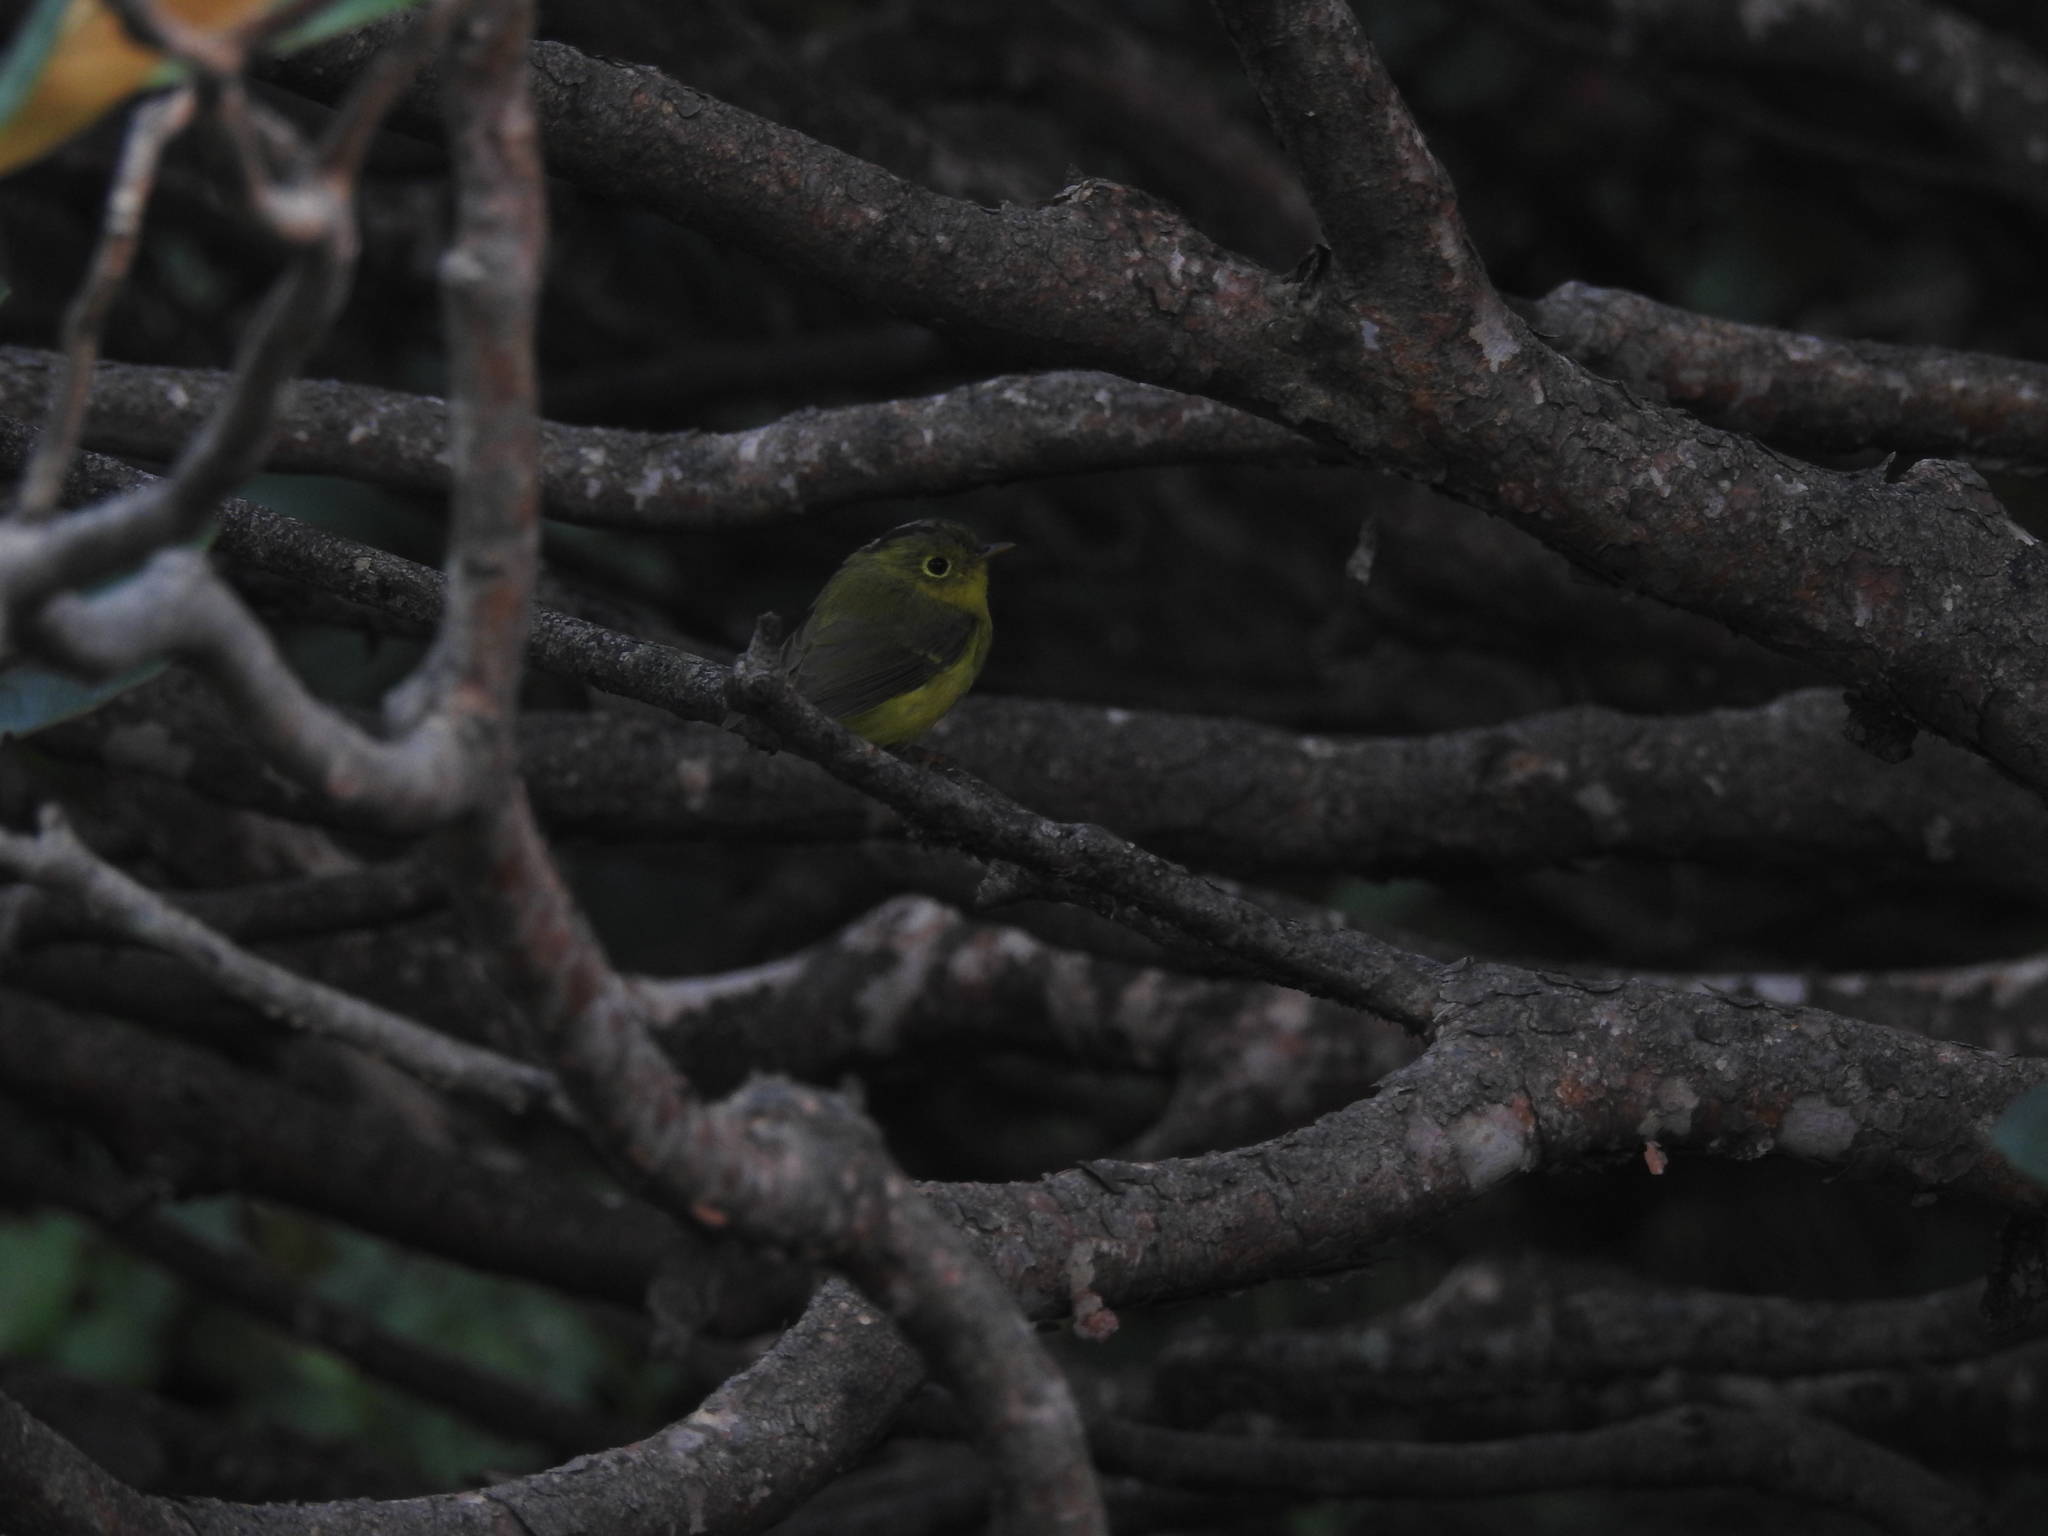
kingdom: Animalia
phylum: Chordata
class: Aves
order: Passeriformes
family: Phylloscopidae
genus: Seicercus
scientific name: Seicercus whistleri
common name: Whistler's warbler
